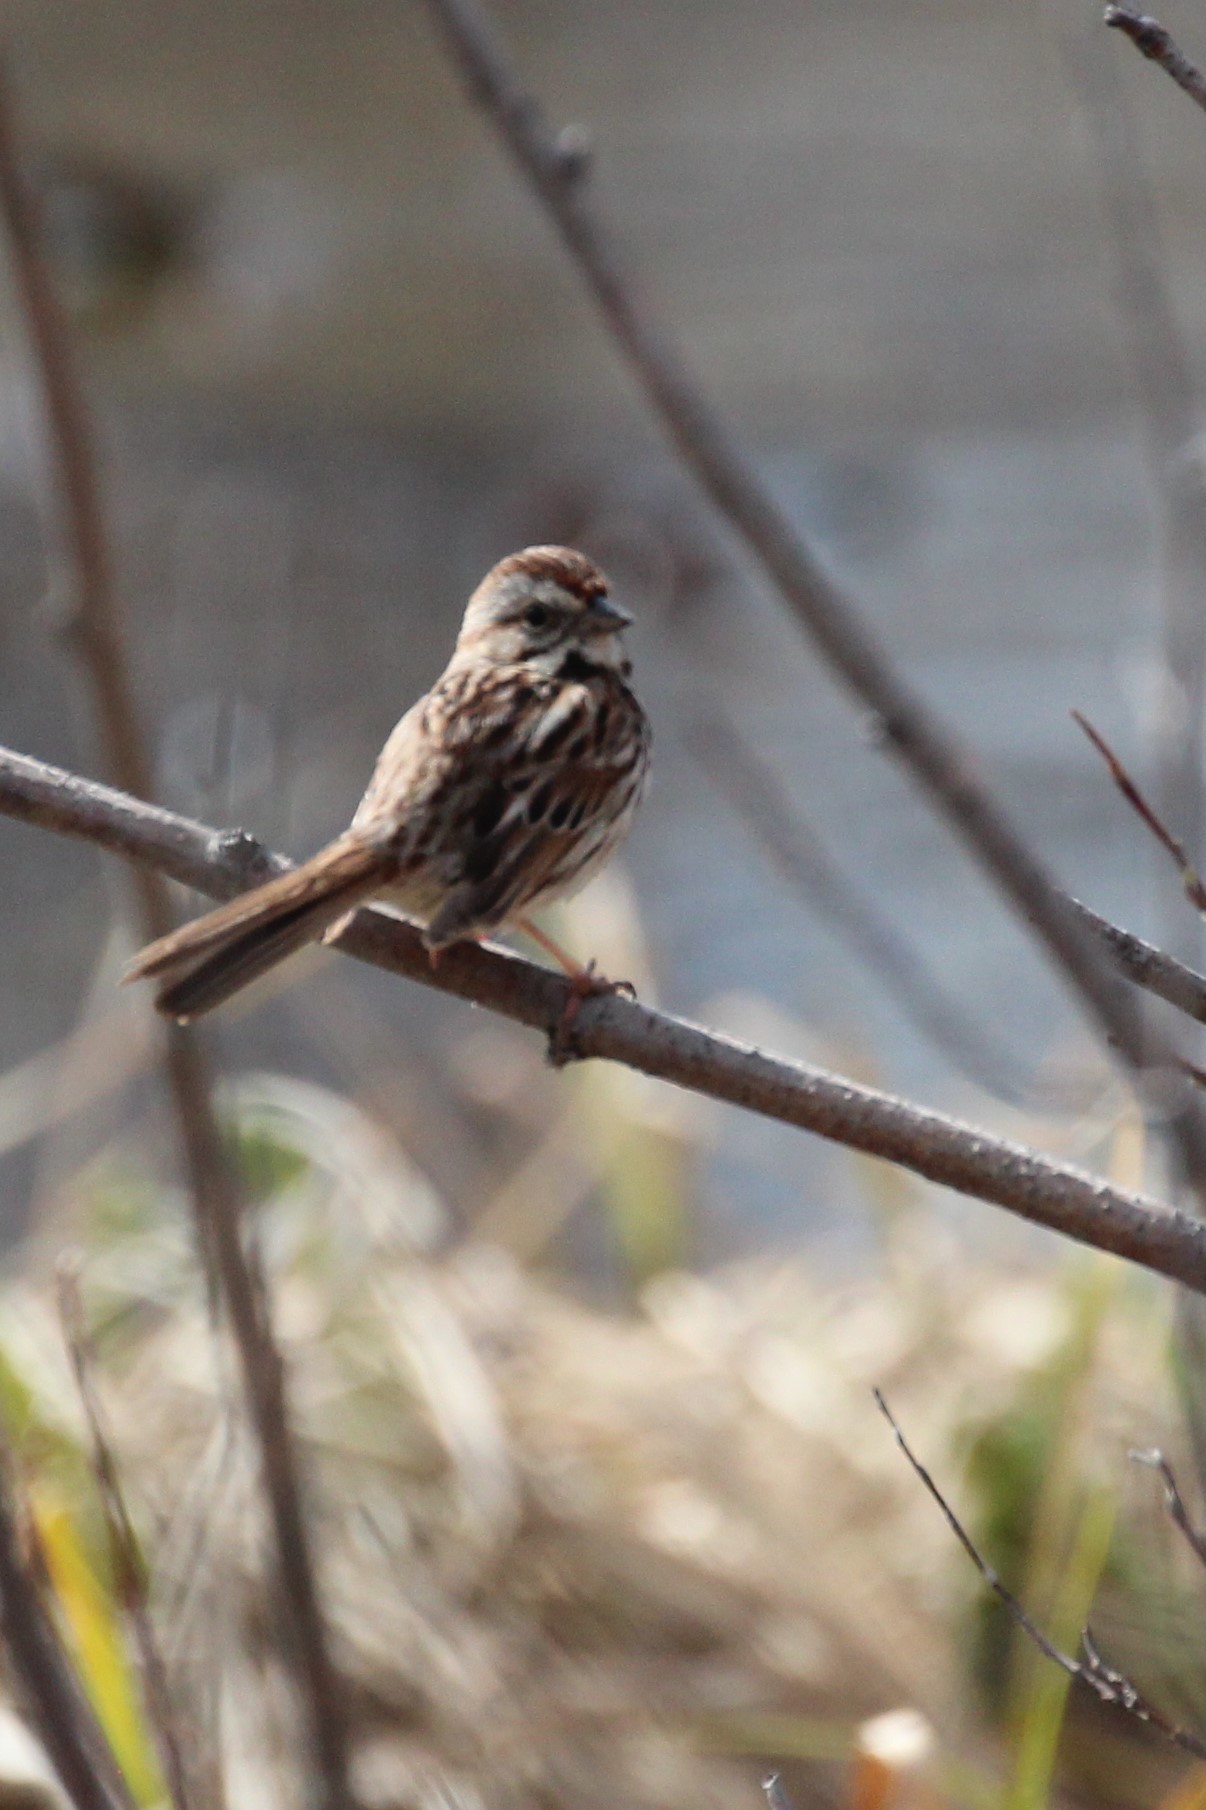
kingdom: Animalia
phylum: Chordata
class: Aves
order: Passeriformes
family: Passerellidae
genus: Melospiza
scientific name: Melospiza melodia
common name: Song sparrow
